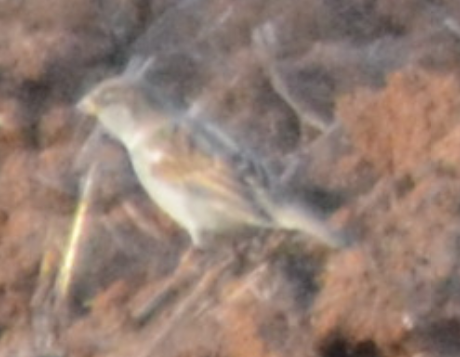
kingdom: Animalia
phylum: Chordata
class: Aves
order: Passeriformes
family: Passeridae
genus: Passer
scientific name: Passer domesticus
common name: House sparrow
